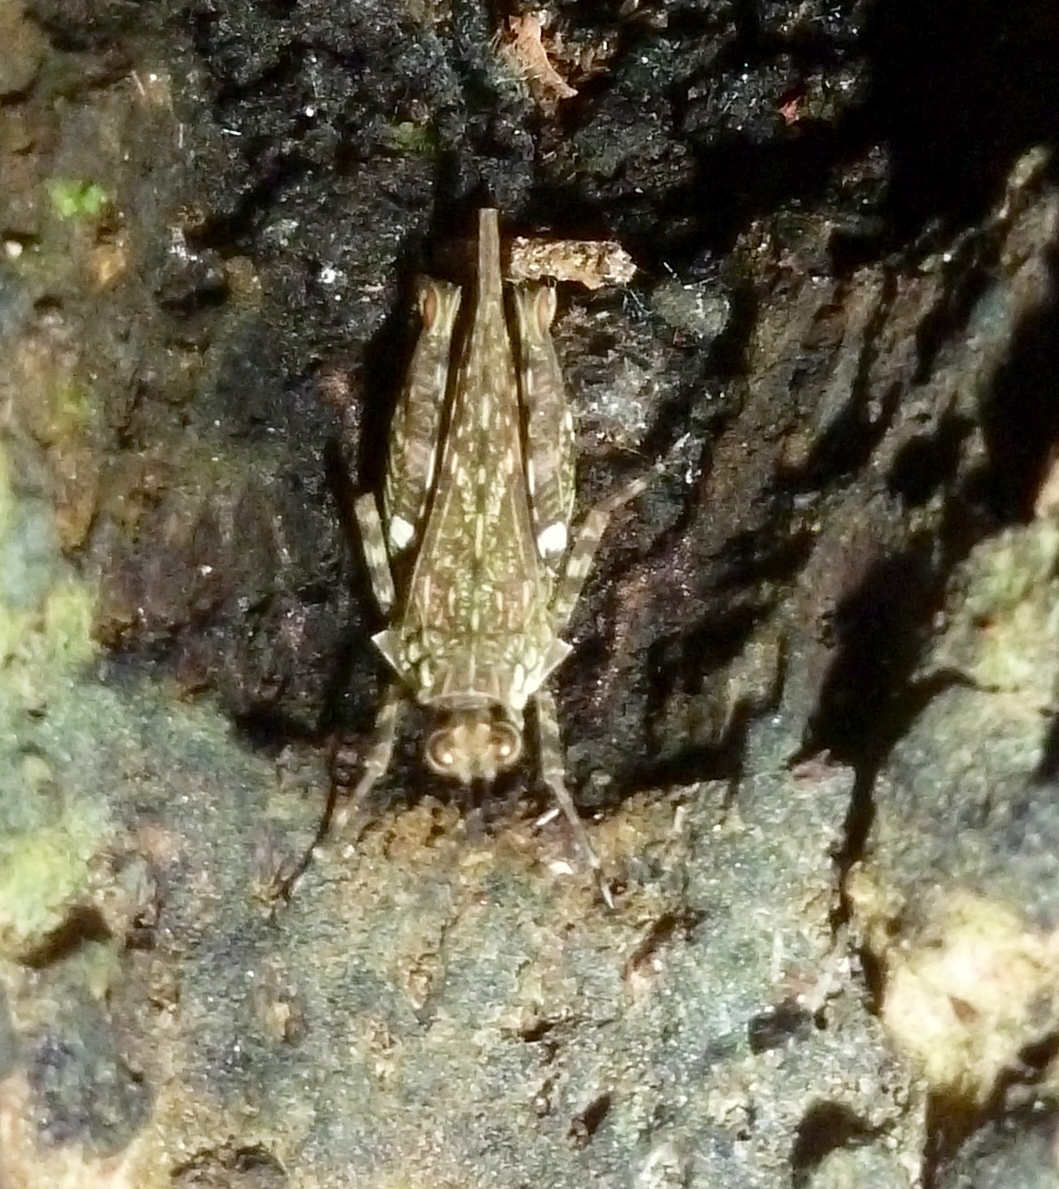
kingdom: Animalia
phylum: Arthropoda
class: Insecta
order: Orthoptera
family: Tetrigidae
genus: Cryptotettix
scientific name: Cryptotettix imerina
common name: Common hiding pygmy grasshopper
